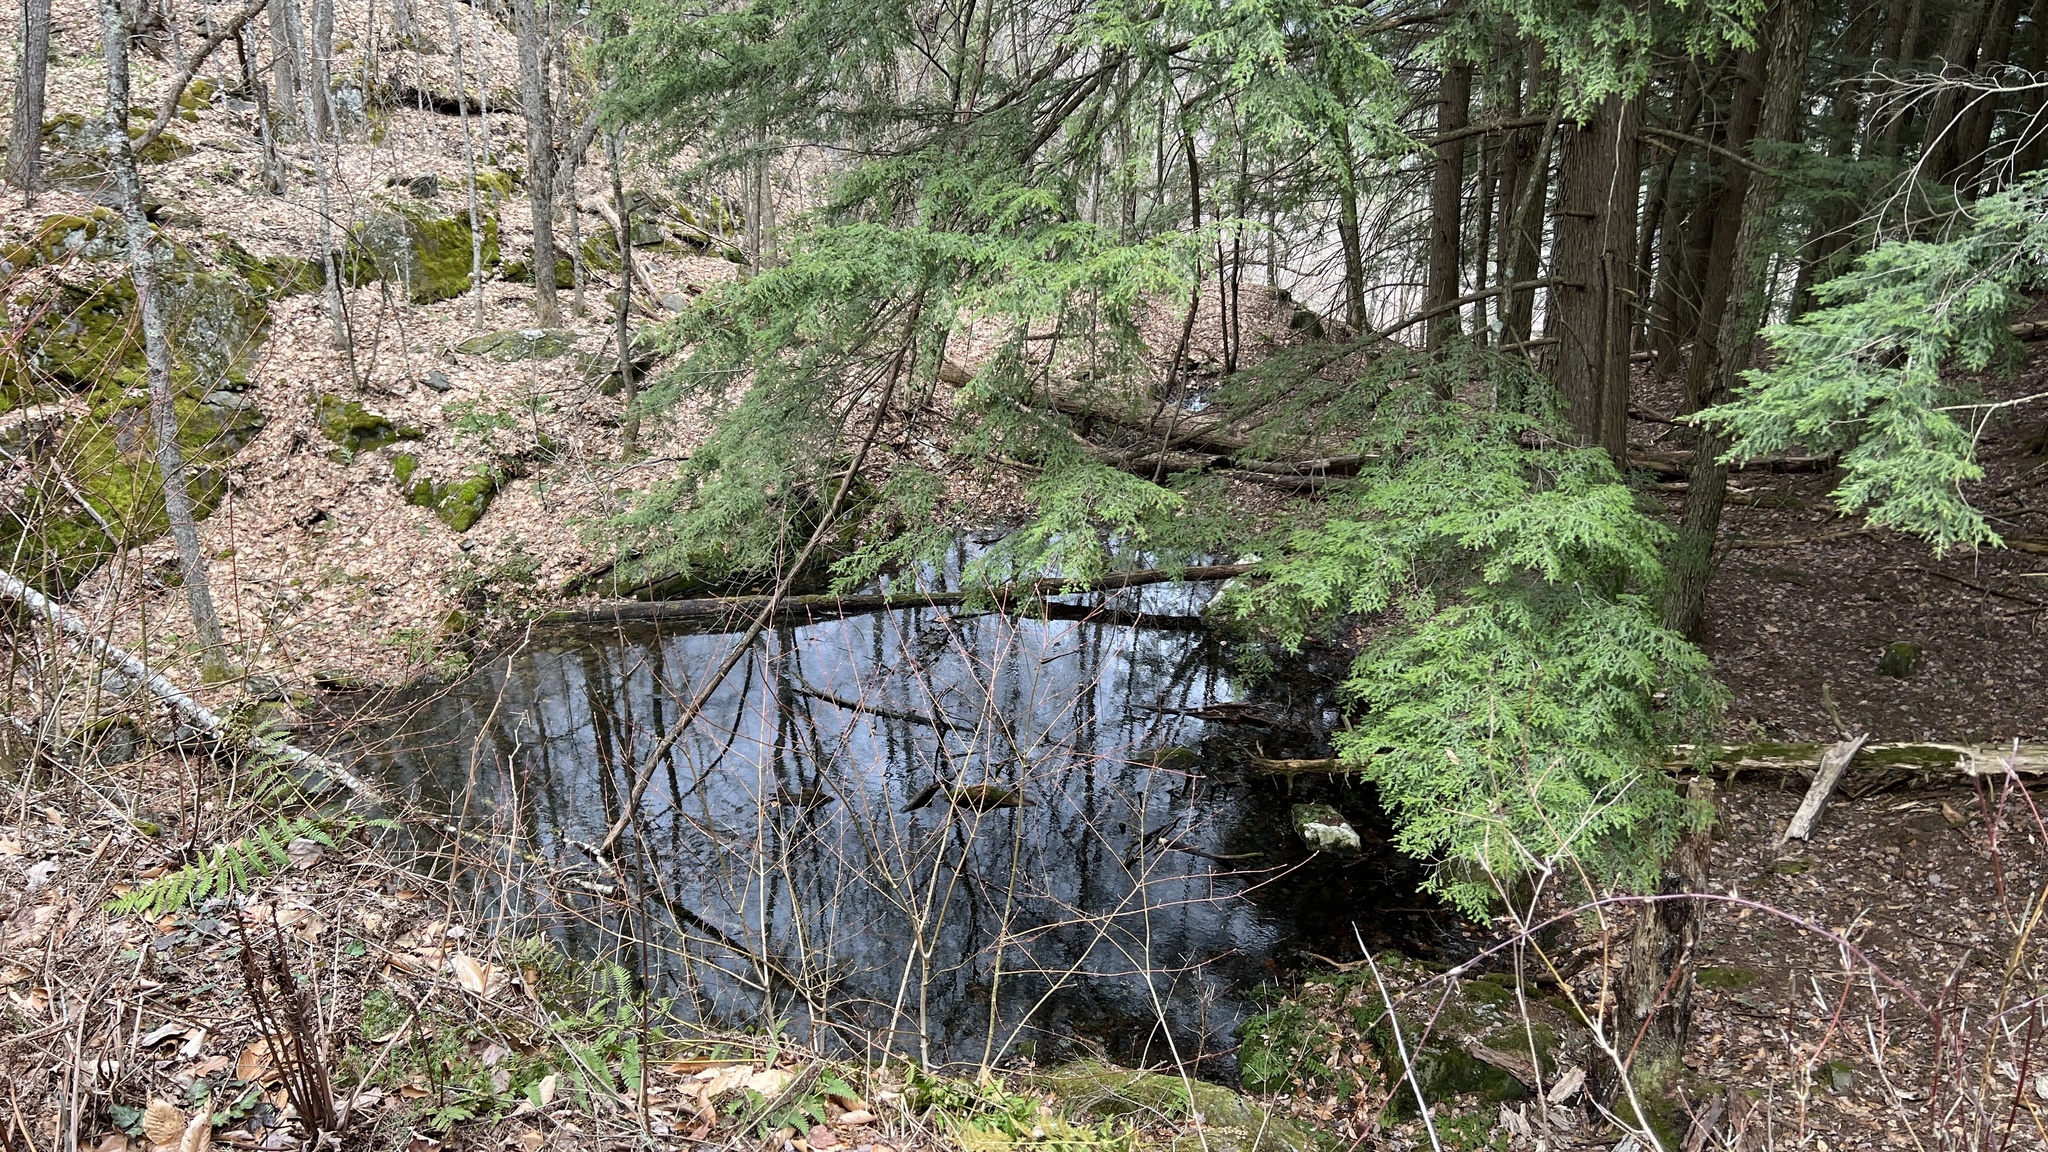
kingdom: Plantae
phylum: Tracheophyta
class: Pinopsida
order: Pinales
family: Pinaceae
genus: Tsuga
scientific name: Tsuga canadensis
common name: Eastern hemlock
